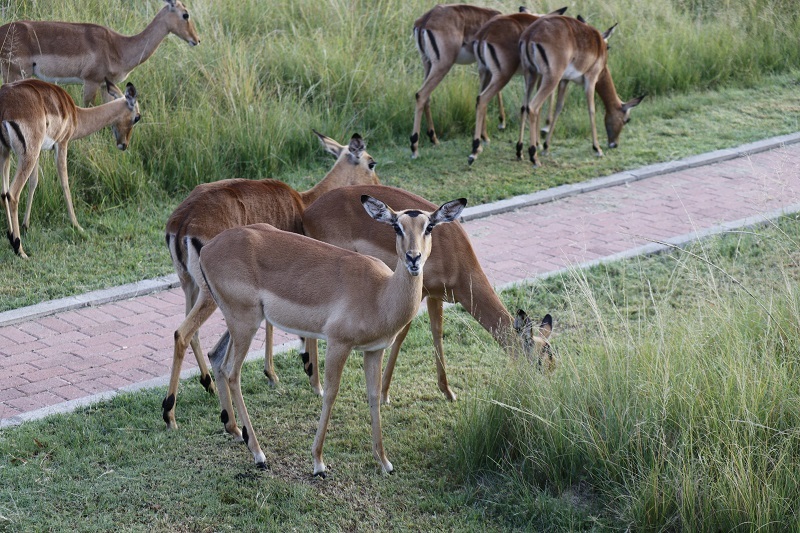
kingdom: Animalia
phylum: Chordata
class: Mammalia
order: Artiodactyla
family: Bovidae
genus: Aepyceros
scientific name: Aepyceros melampus
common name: Impala
